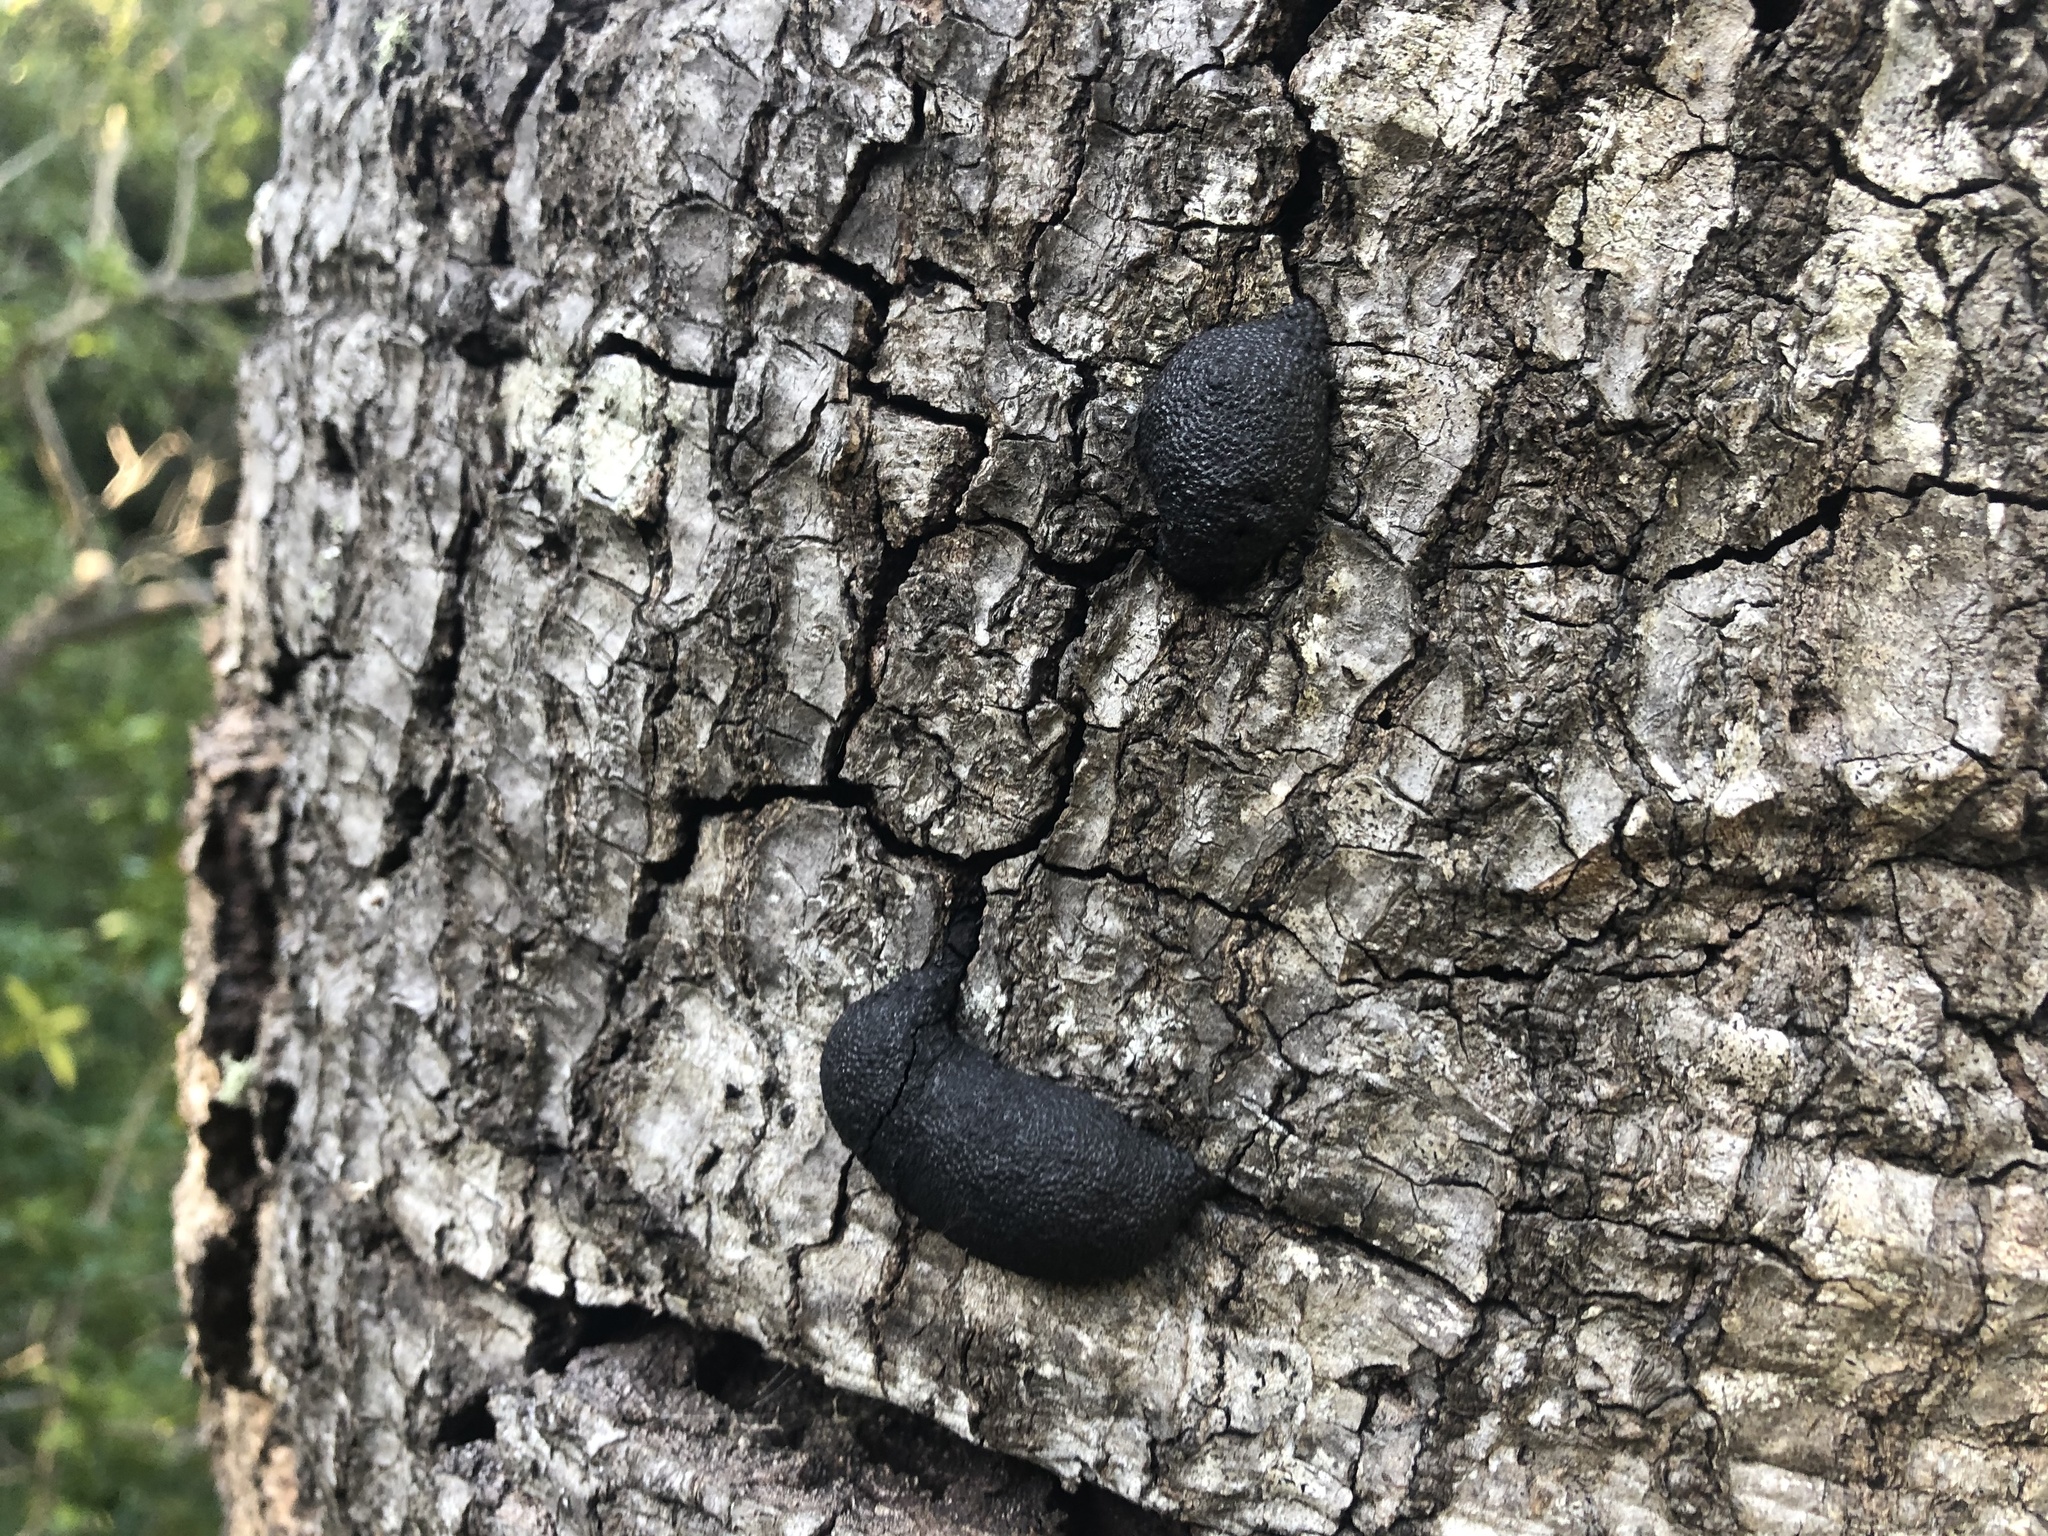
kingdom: Fungi
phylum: Ascomycota
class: Sordariomycetes
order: Xylariales
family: Hypoxylaceae
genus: Annulohypoxylon
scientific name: Annulohypoxylon thouarsianum
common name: Cramp balls
